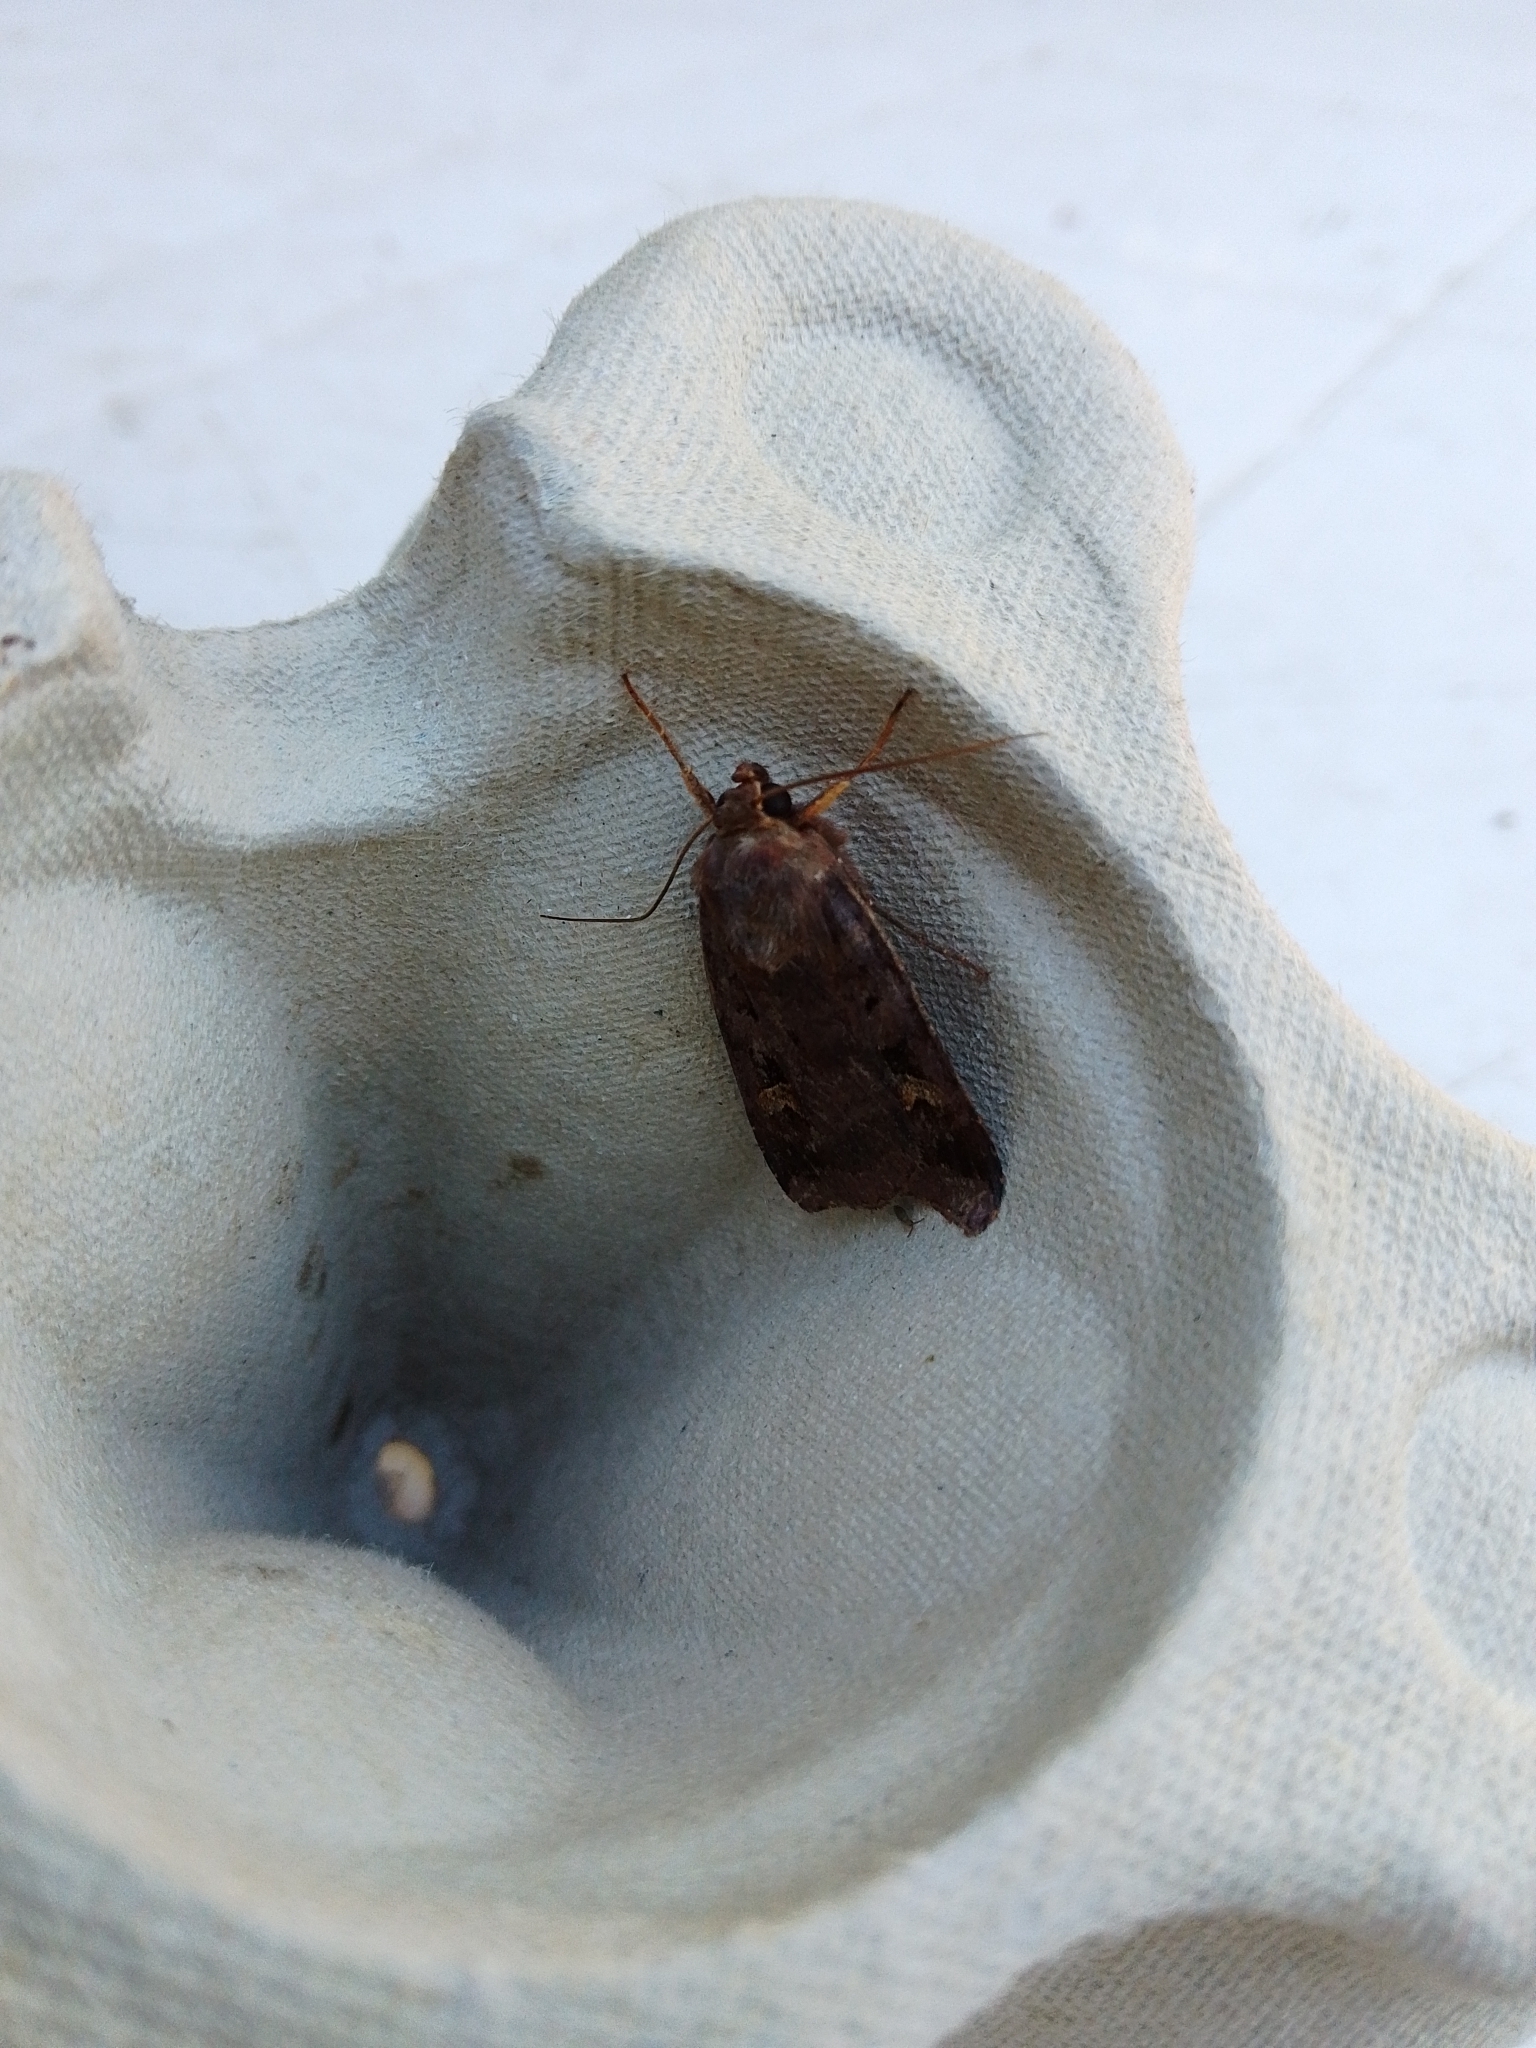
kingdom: Animalia
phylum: Arthropoda
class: Insecta
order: Lepidoptera
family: Noctuidae
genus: Diarsia
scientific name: Diarsia brunnea
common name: Purple clay
